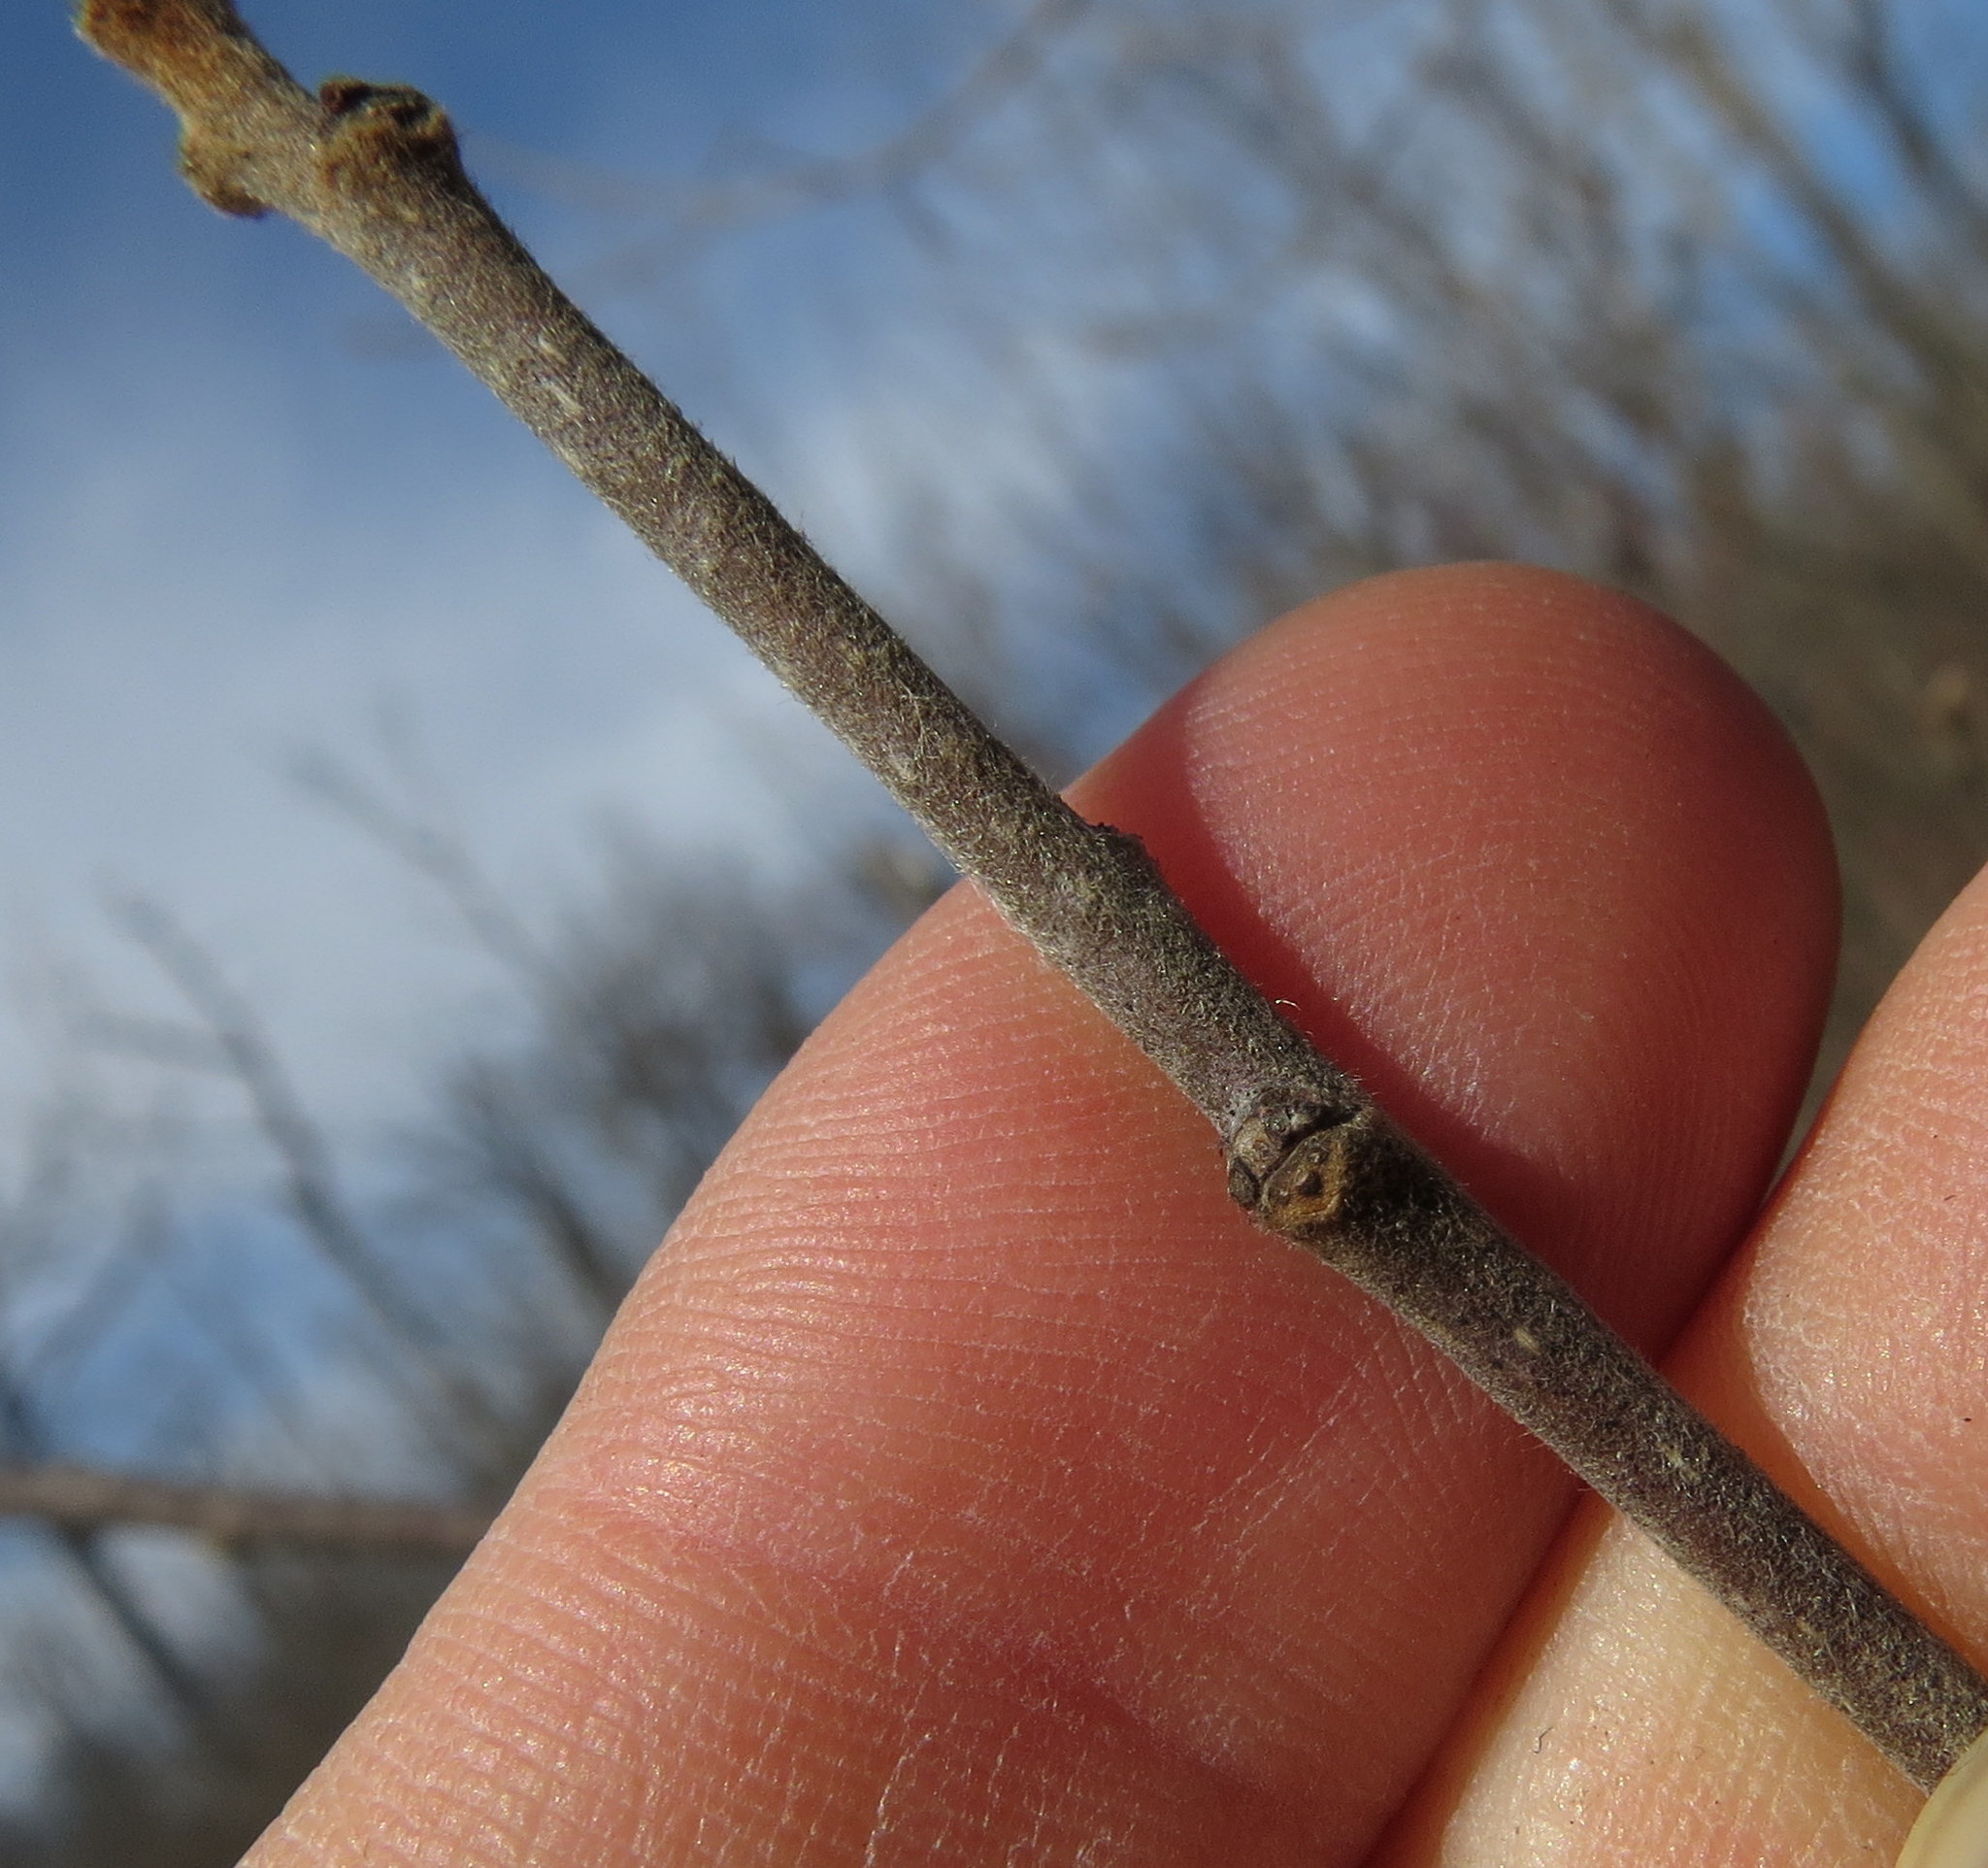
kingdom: Plantae
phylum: Tracheophyta
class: Magnoliopsida
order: Rosales
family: Rhamnaceae
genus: Frangula
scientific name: Frangula alnus
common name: Alder buckthorn
